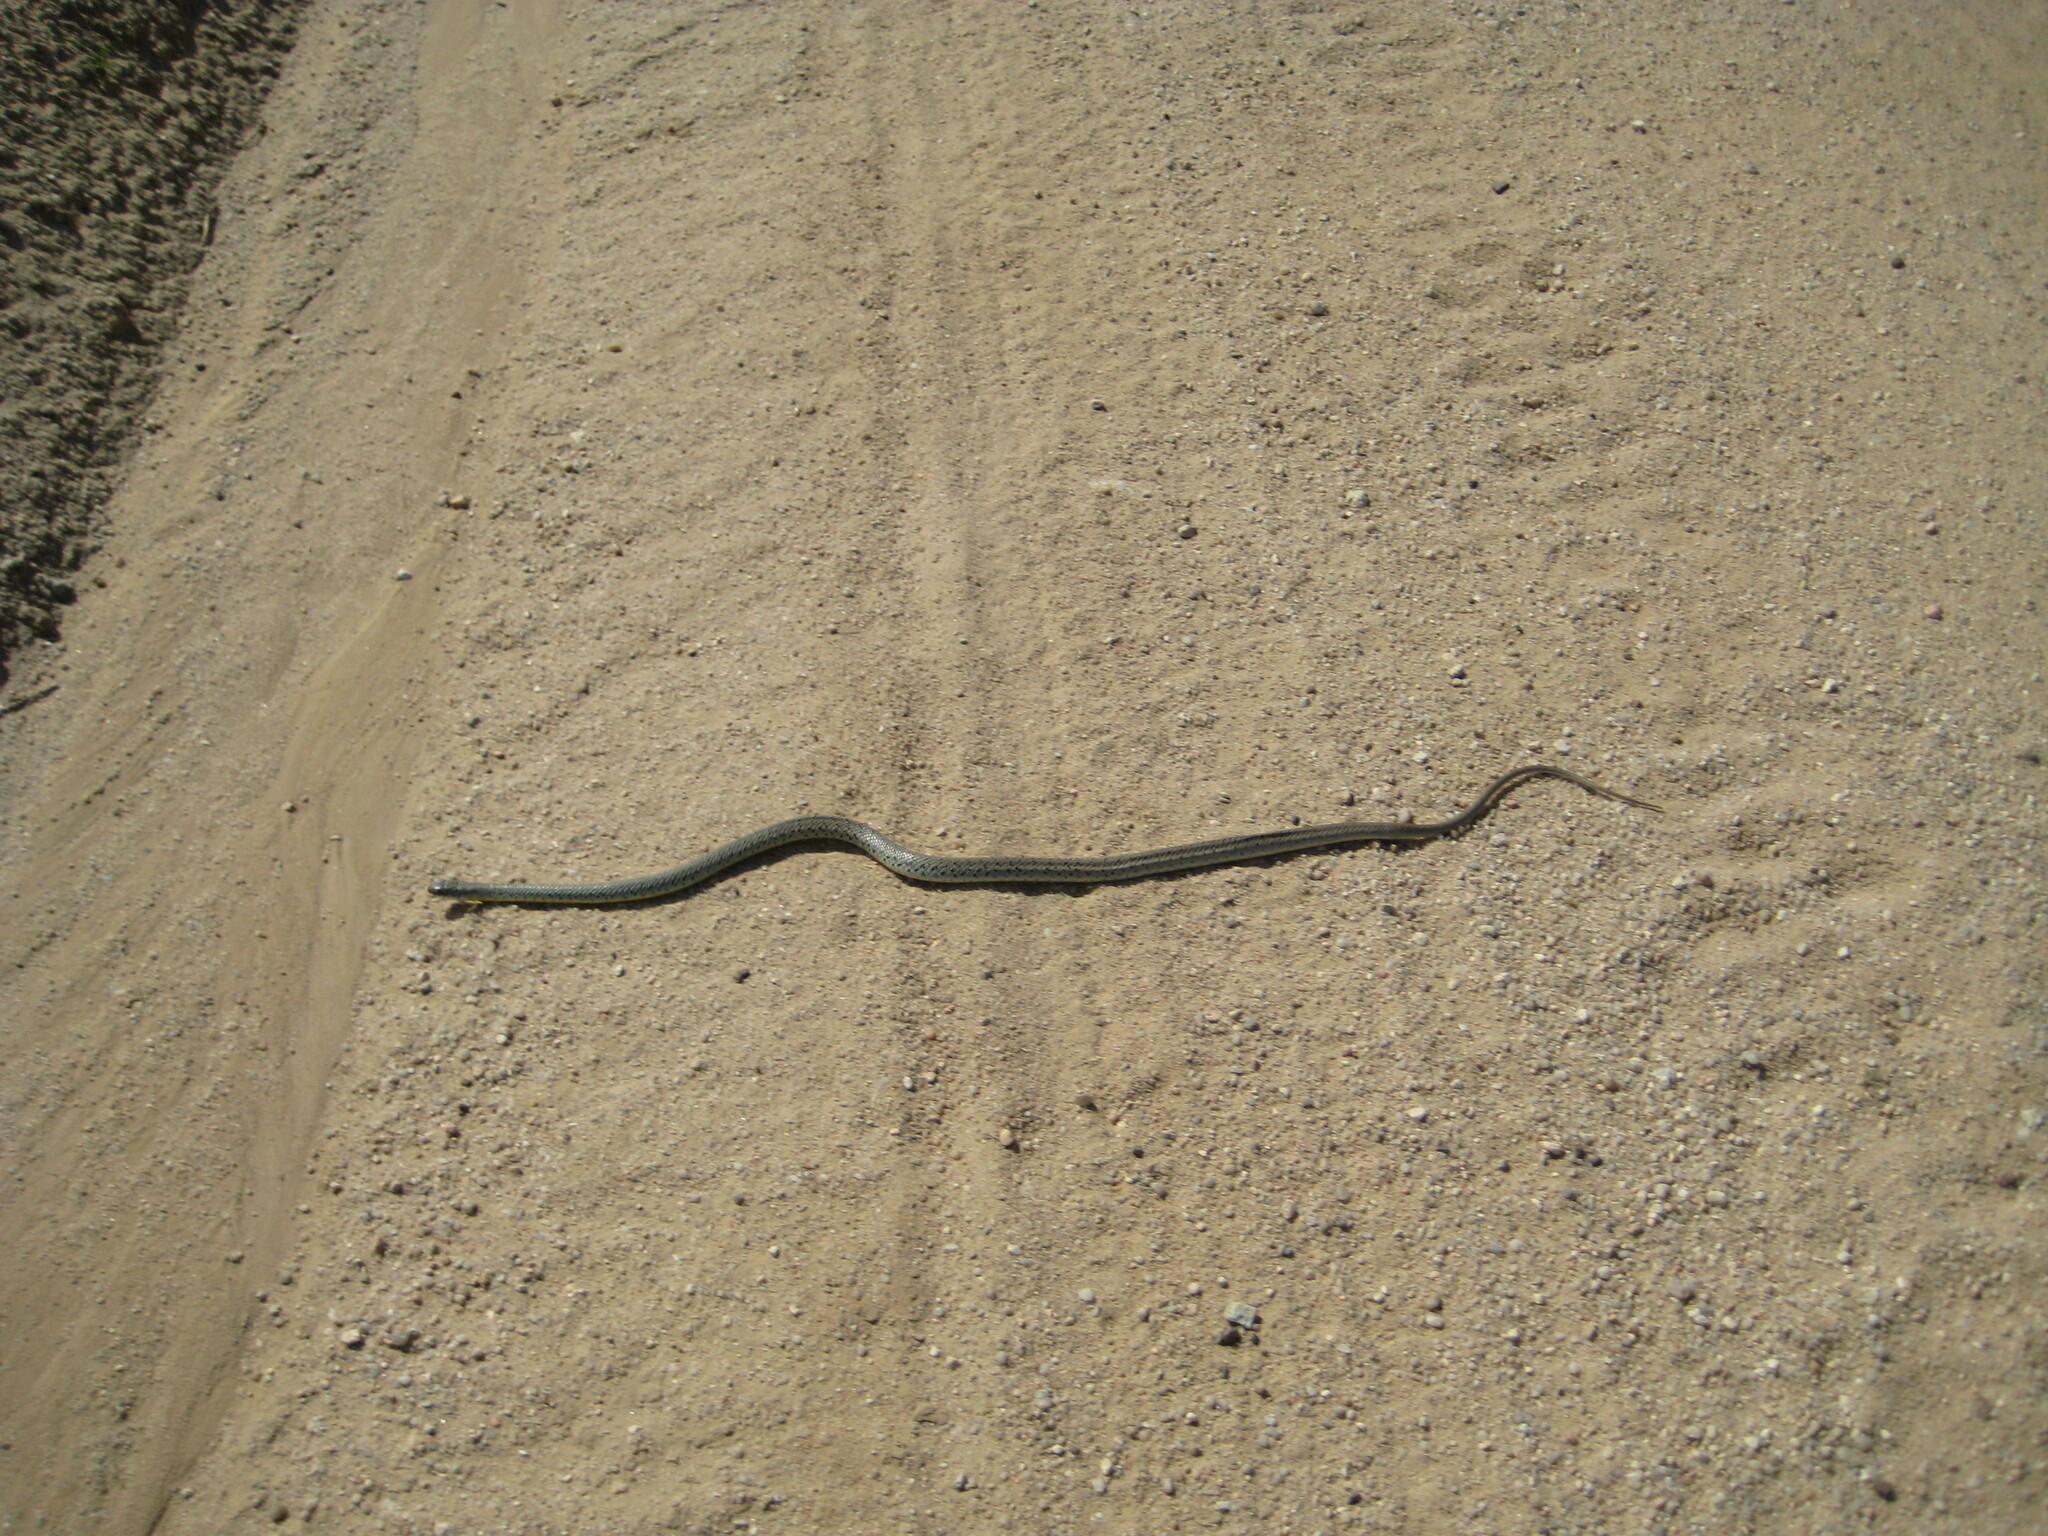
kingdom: Animalia
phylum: Chordata
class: Squamata
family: Colubridae
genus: Coluber
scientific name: Coluber constrictor
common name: Eastern racer
